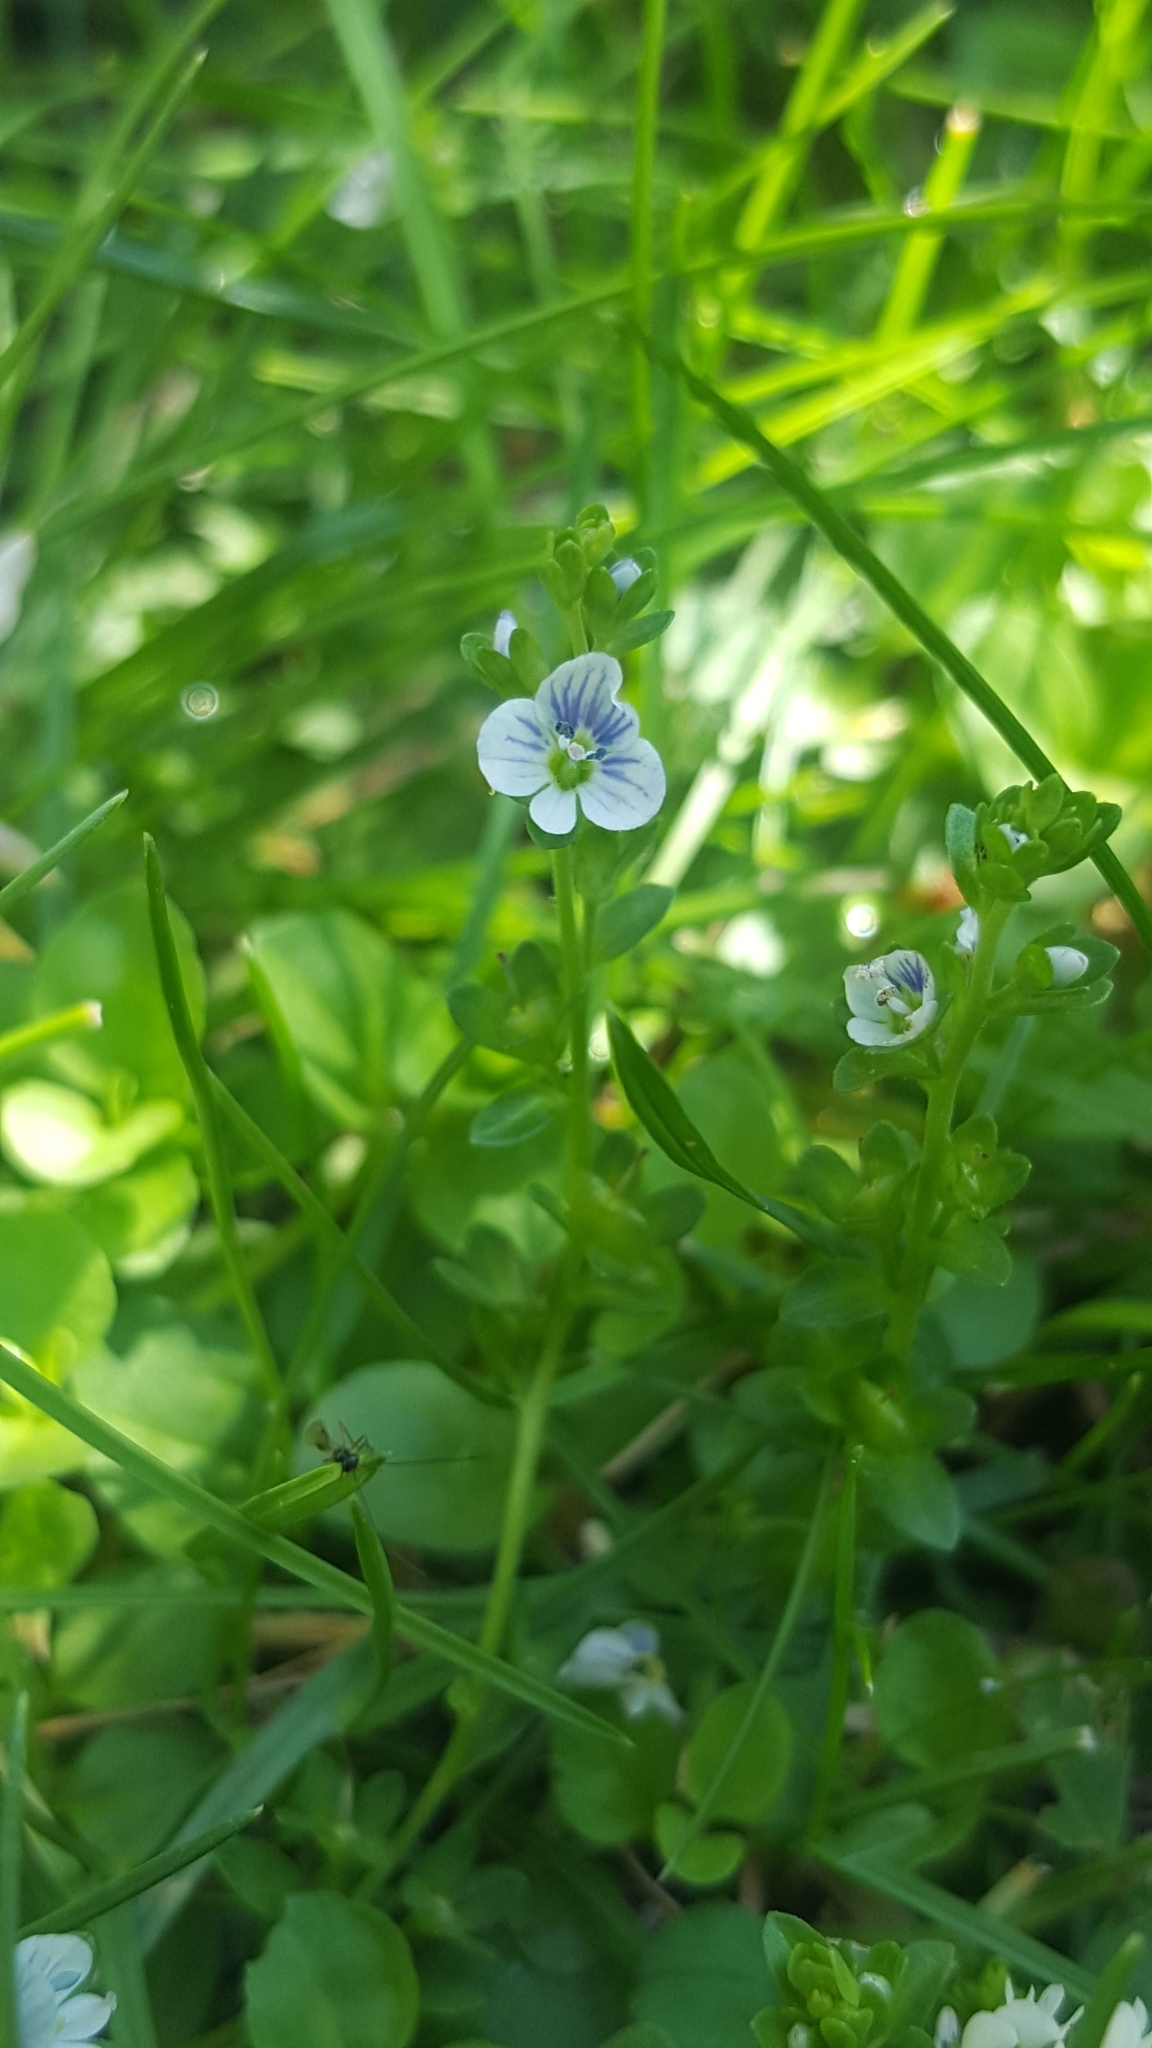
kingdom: Plantae
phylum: Tracheophyta
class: Magnoliopsida
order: Lamiales
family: Plantaginaceae
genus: Veronica
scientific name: Veronica serpyllifolia
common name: Thyme-leaved speedwell
